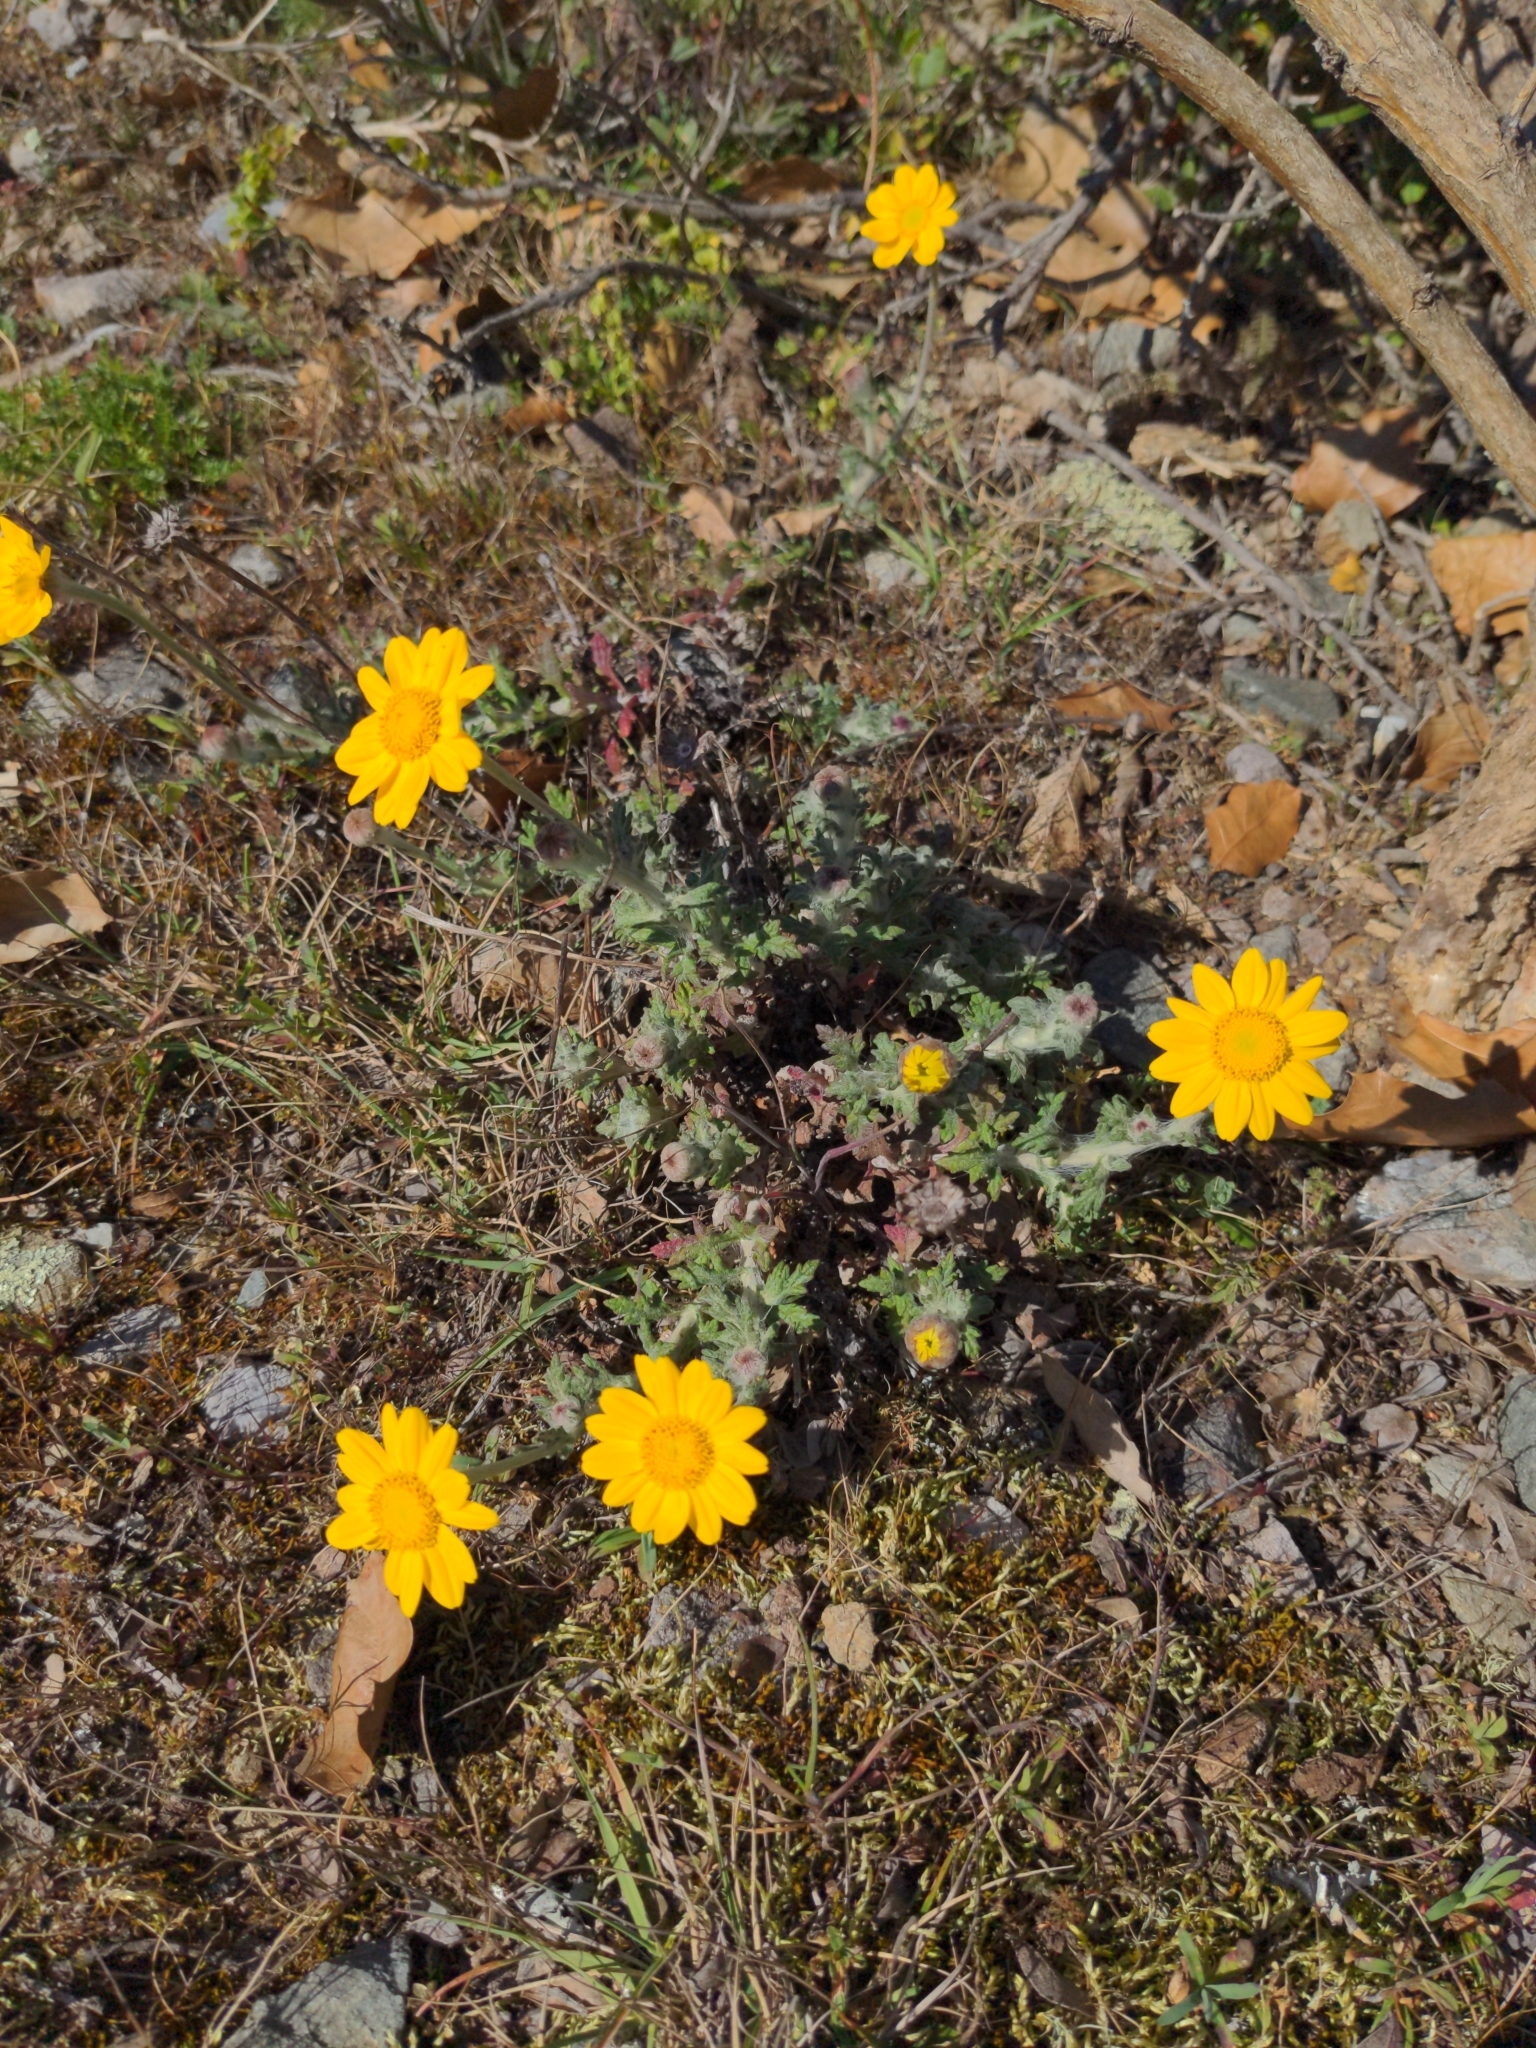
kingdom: Plantae
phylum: Tracheophyta
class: Magnoliopsida
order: Asterales
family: Asteraceae
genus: Eriophyllum
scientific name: Eriophyllum lanatum
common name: Common woolly-sunflower
